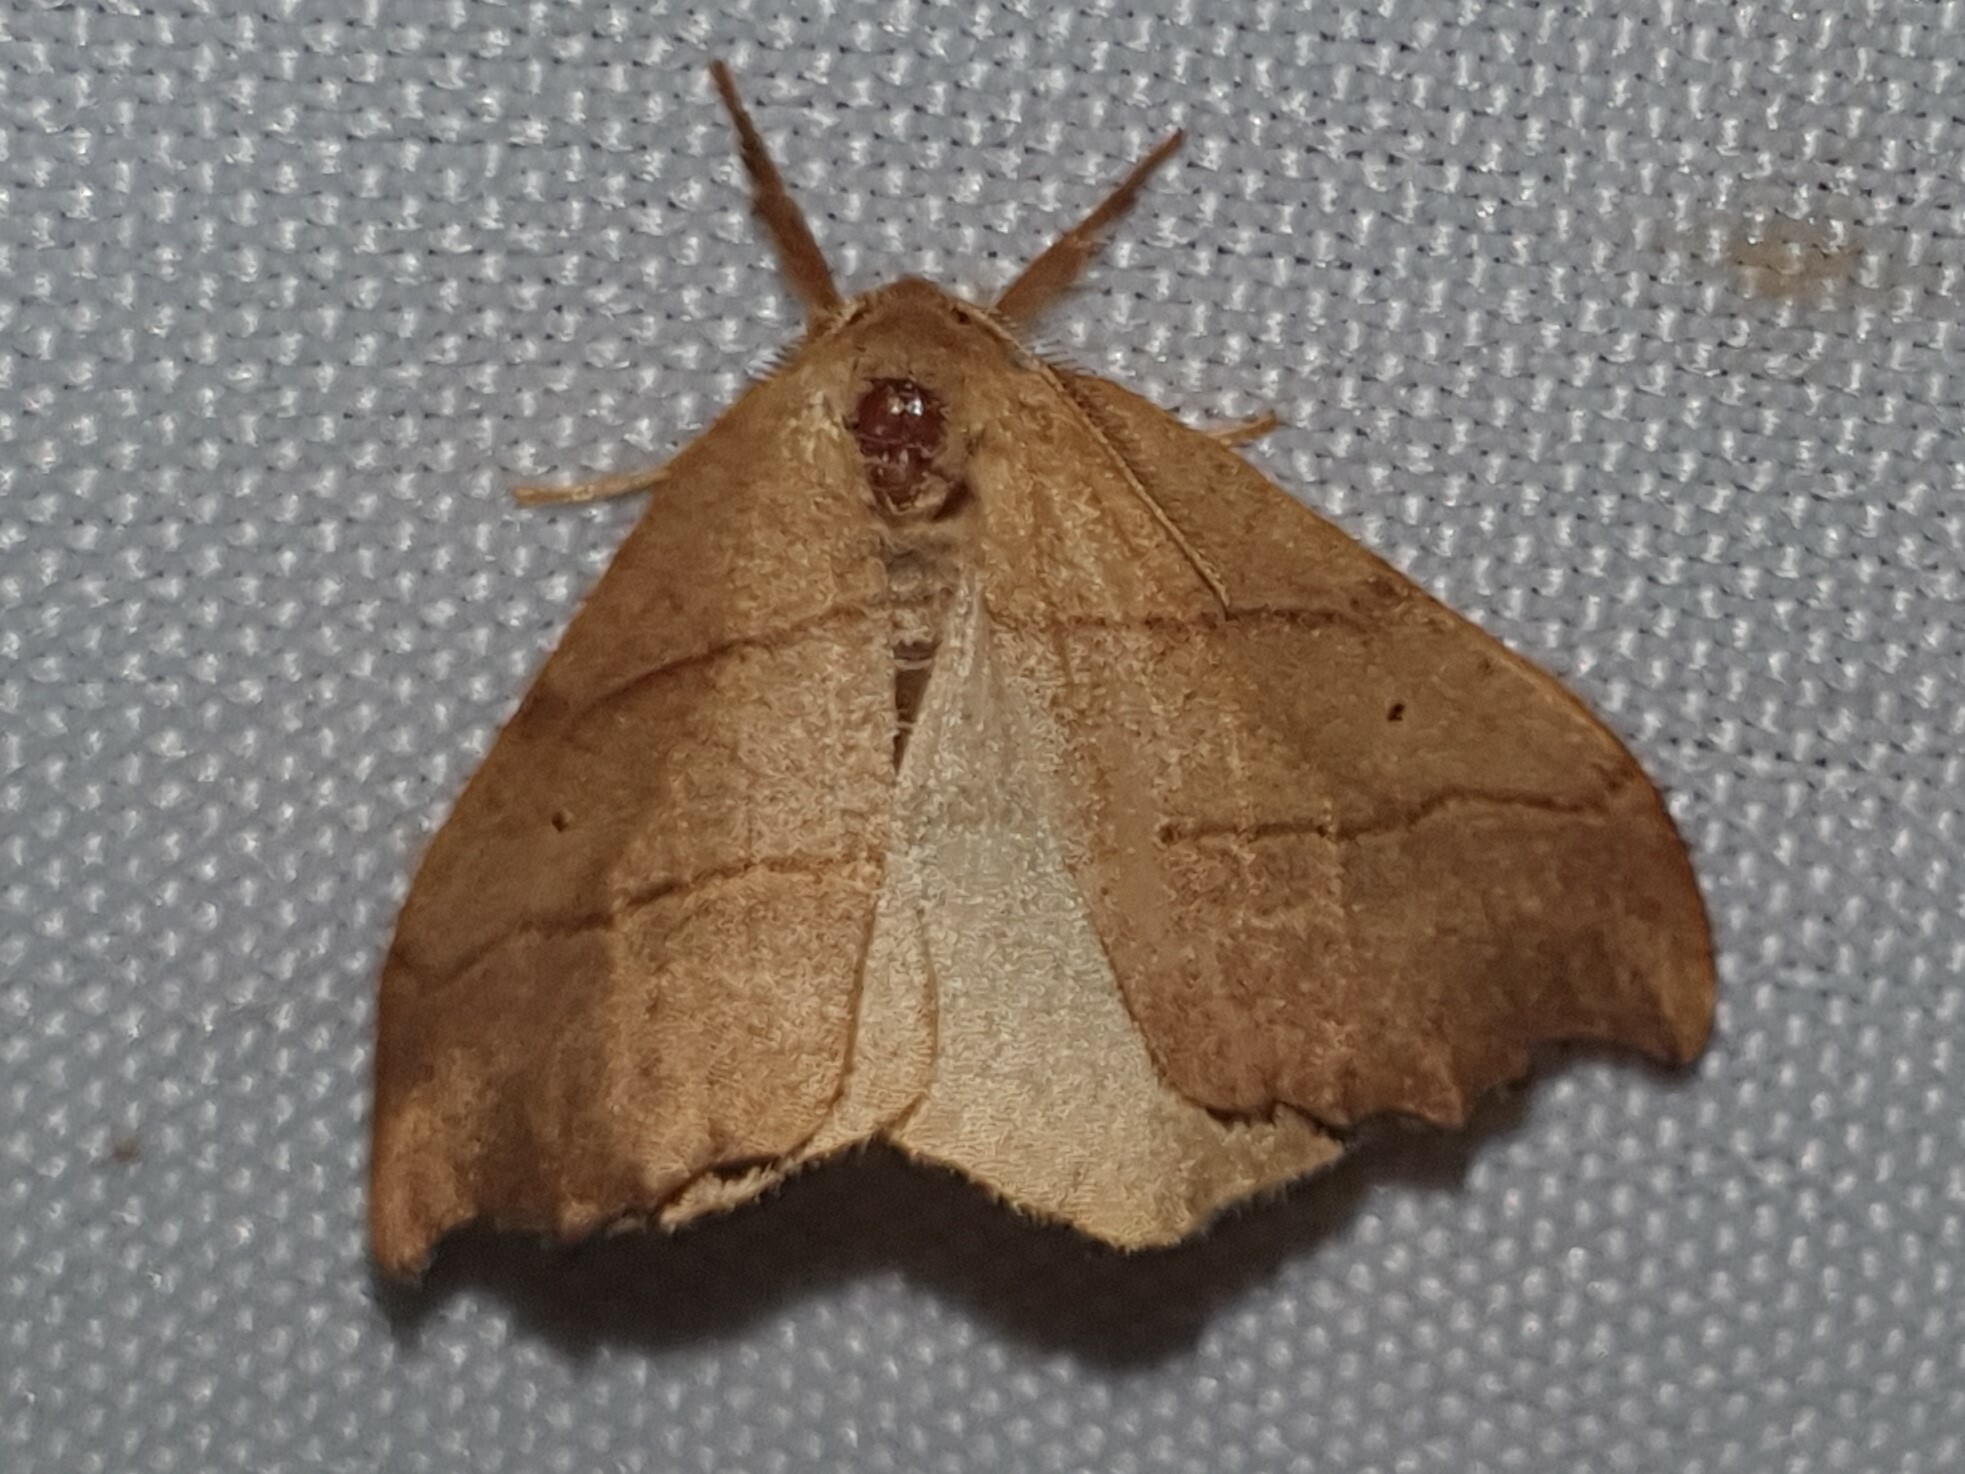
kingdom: Animalia
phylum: Arthropoda
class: Insecta
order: Lepidoptera
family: Drepanidae
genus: Falcaria
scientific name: Falcaria lacertinaria
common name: Scalloped hook-tip
